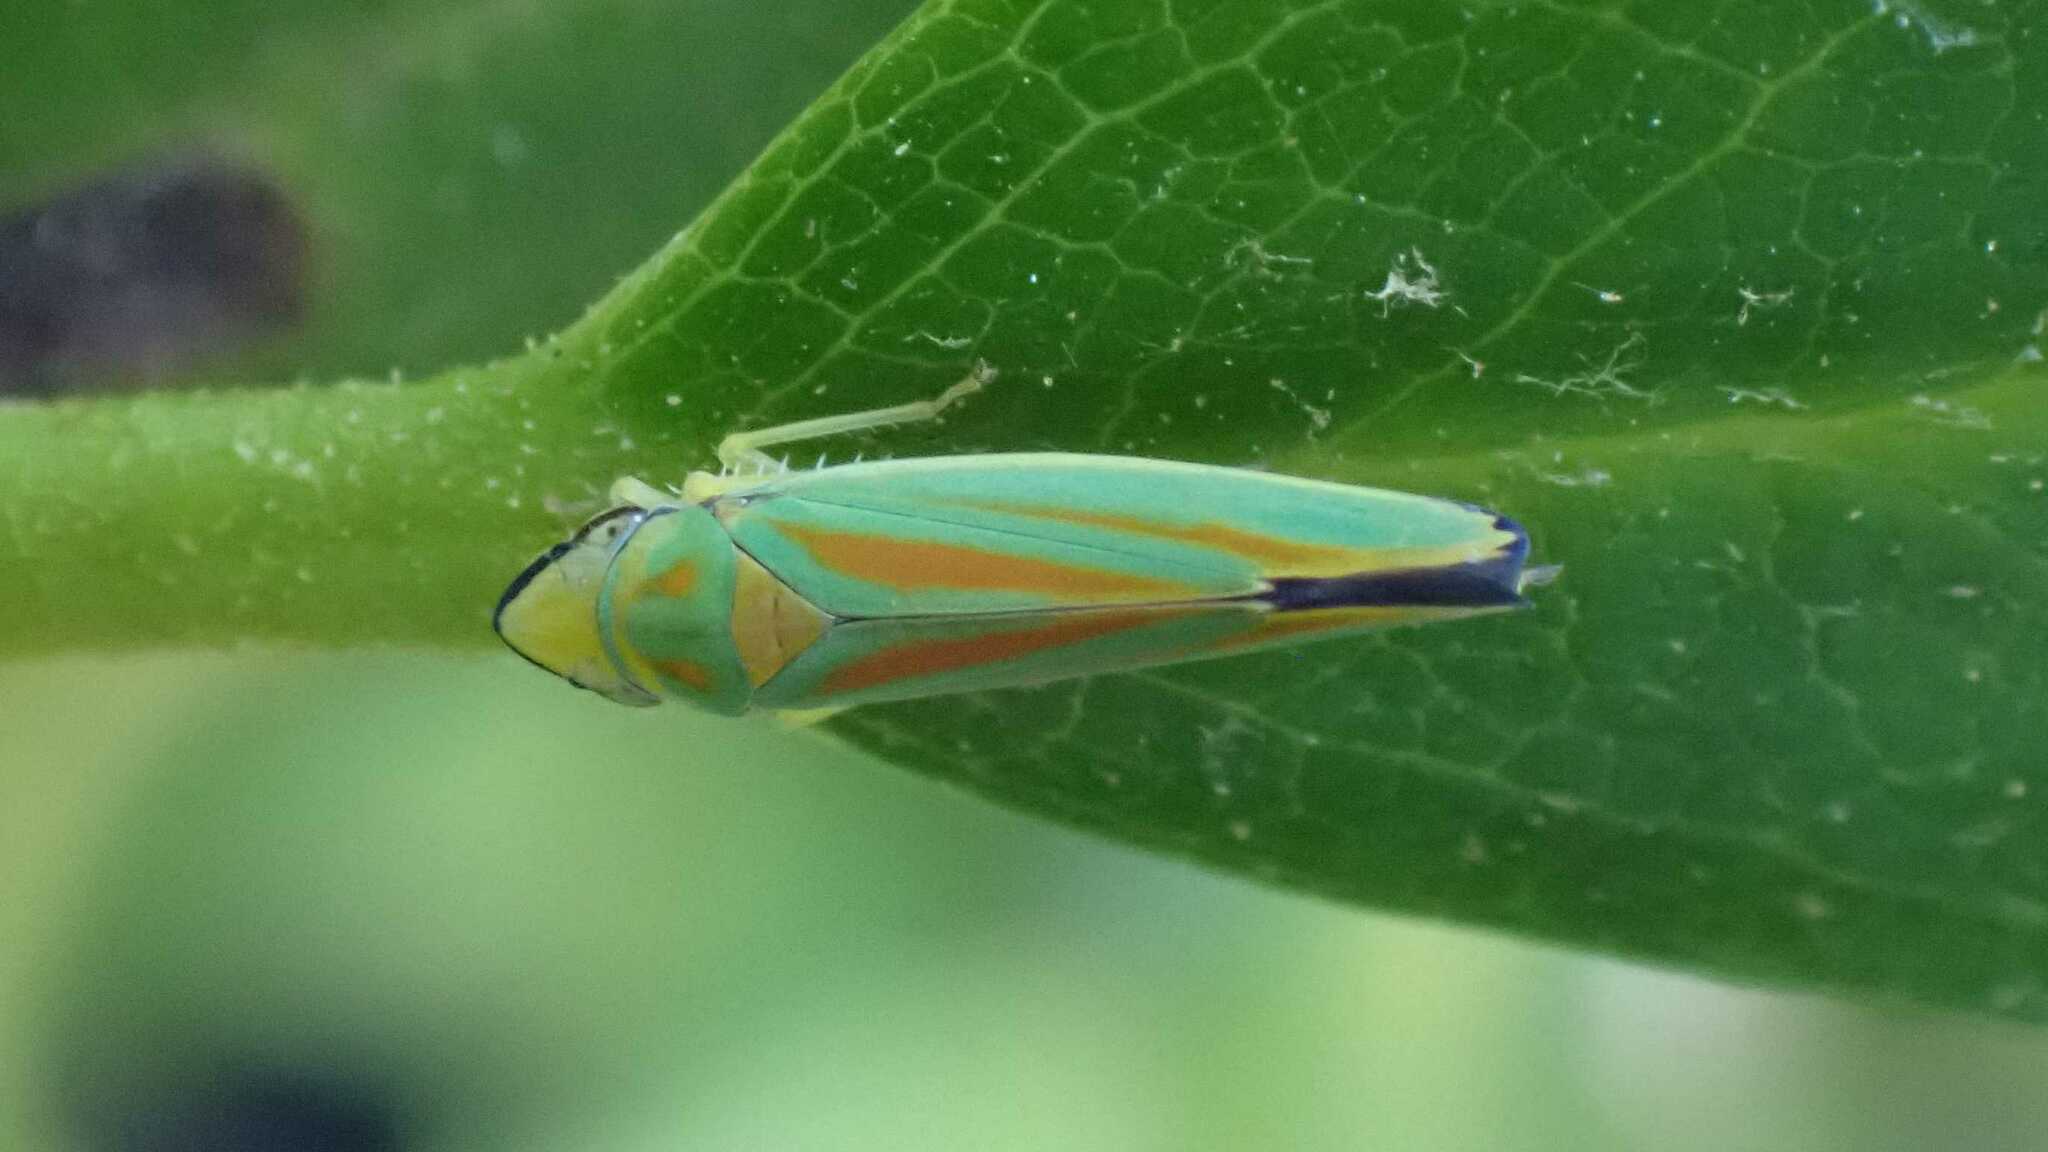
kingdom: Animalia
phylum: Arthropoda
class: Insecta
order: Hemiptera
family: Cicadellidae
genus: Graphocephala
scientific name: Graphocephala fennahi
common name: Rhododendron leafhopper
